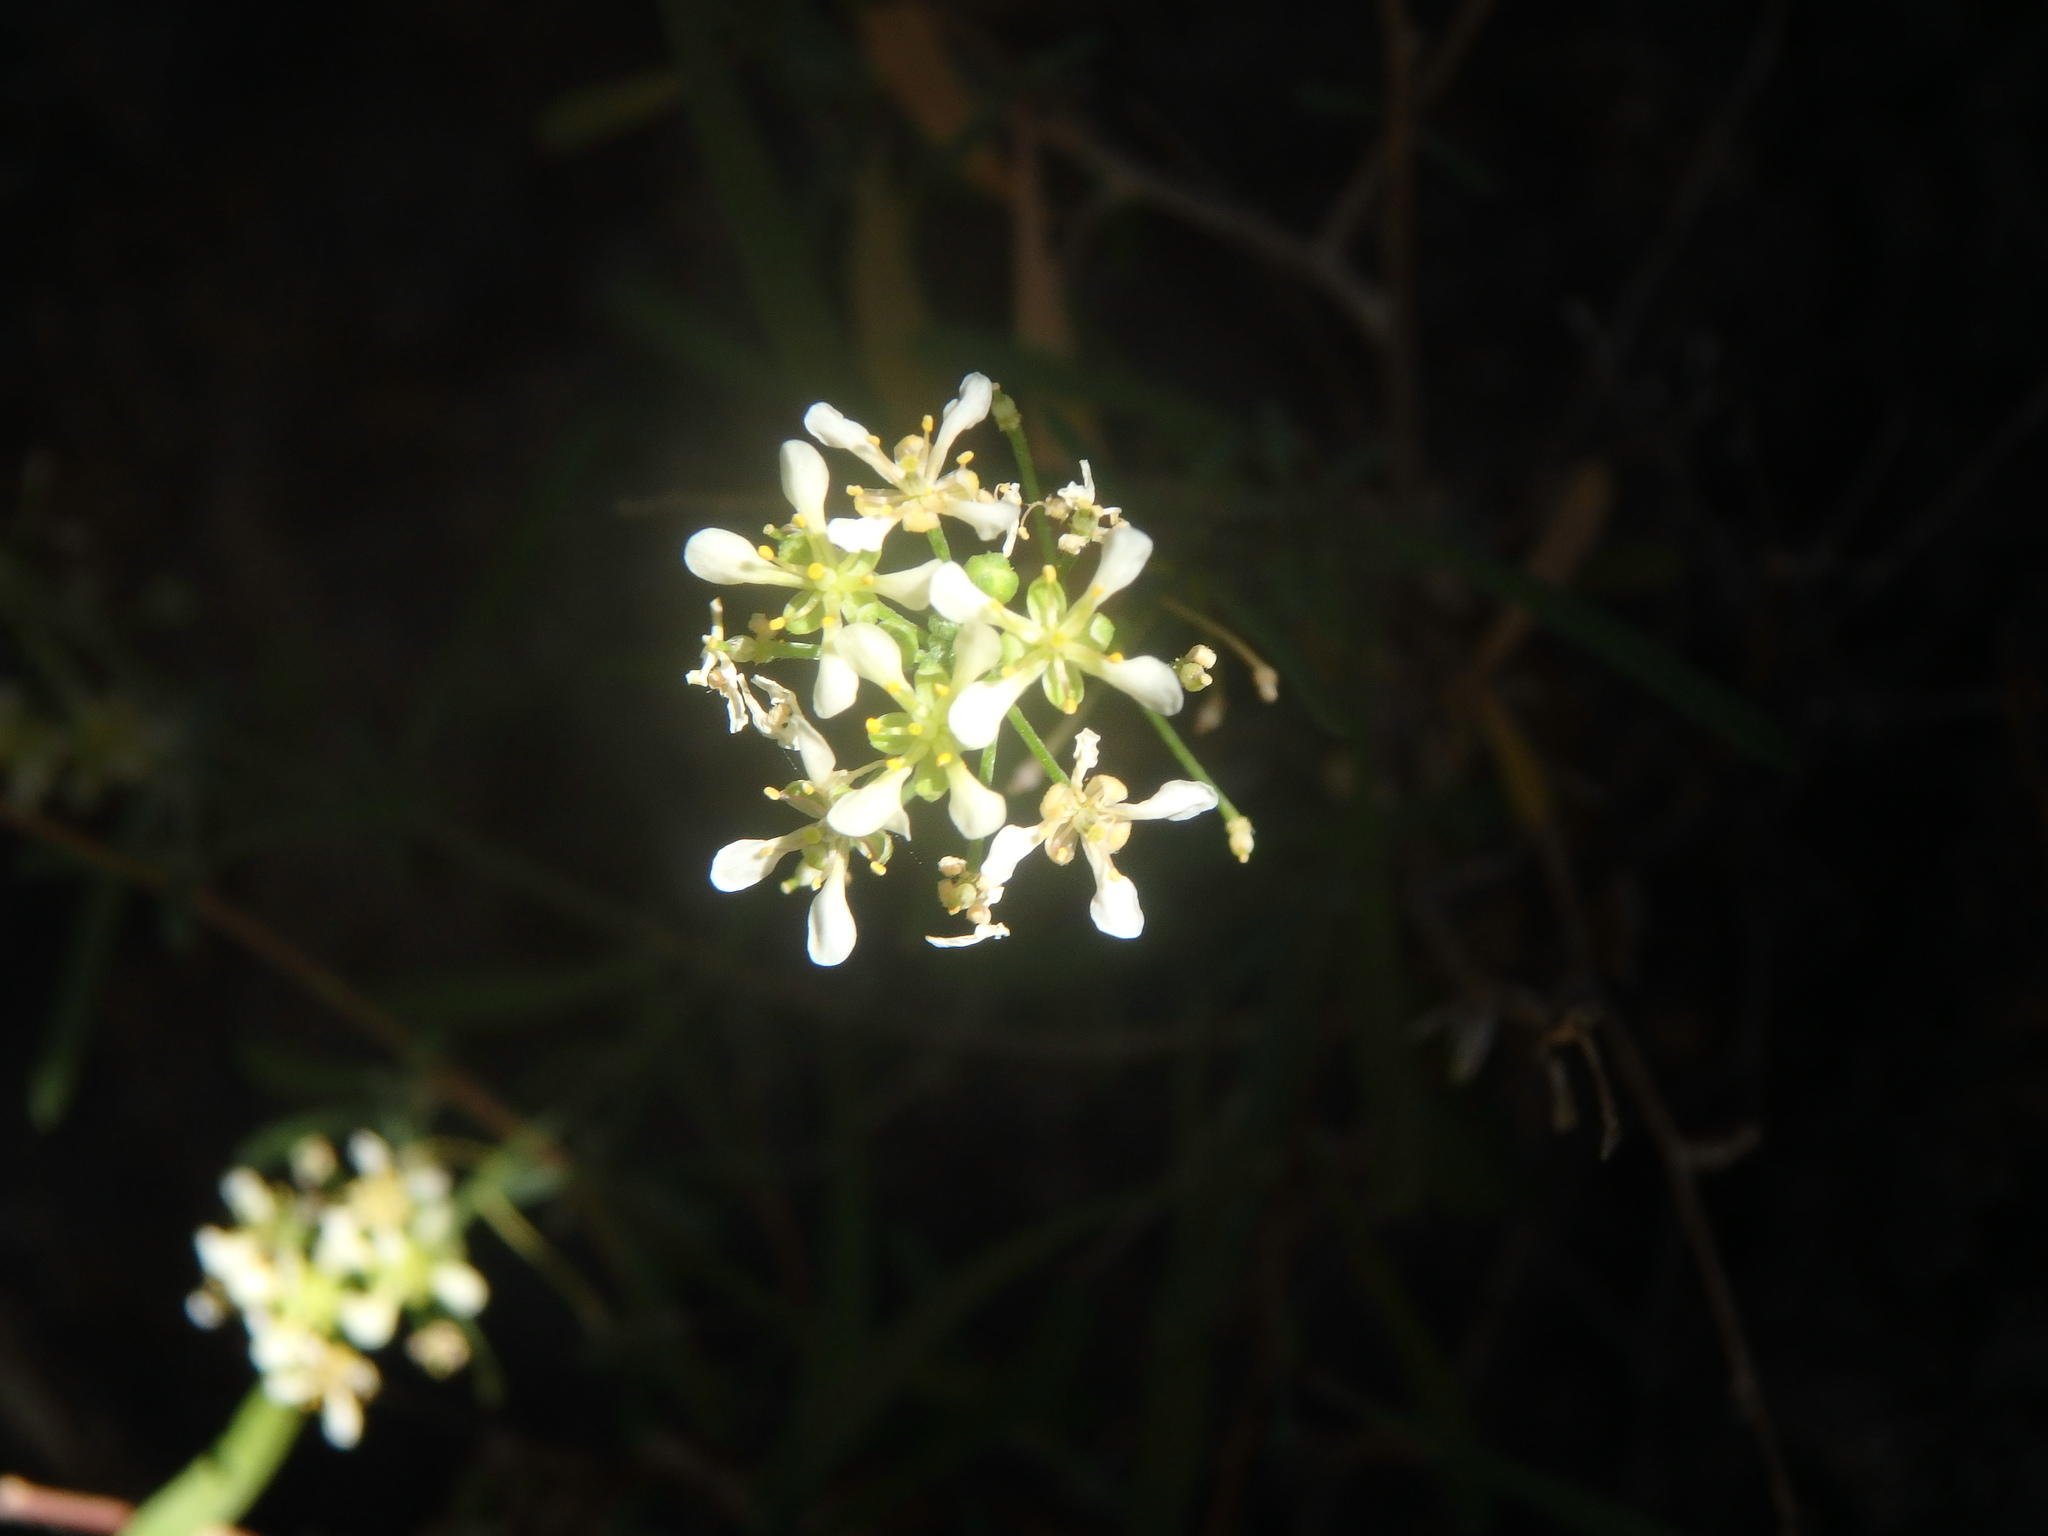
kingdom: Plantae
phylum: Tracheophyta
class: Magnoliopsida
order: Brassicales
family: Brassicaceae
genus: Lobularia
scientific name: Lobularia canariensis
